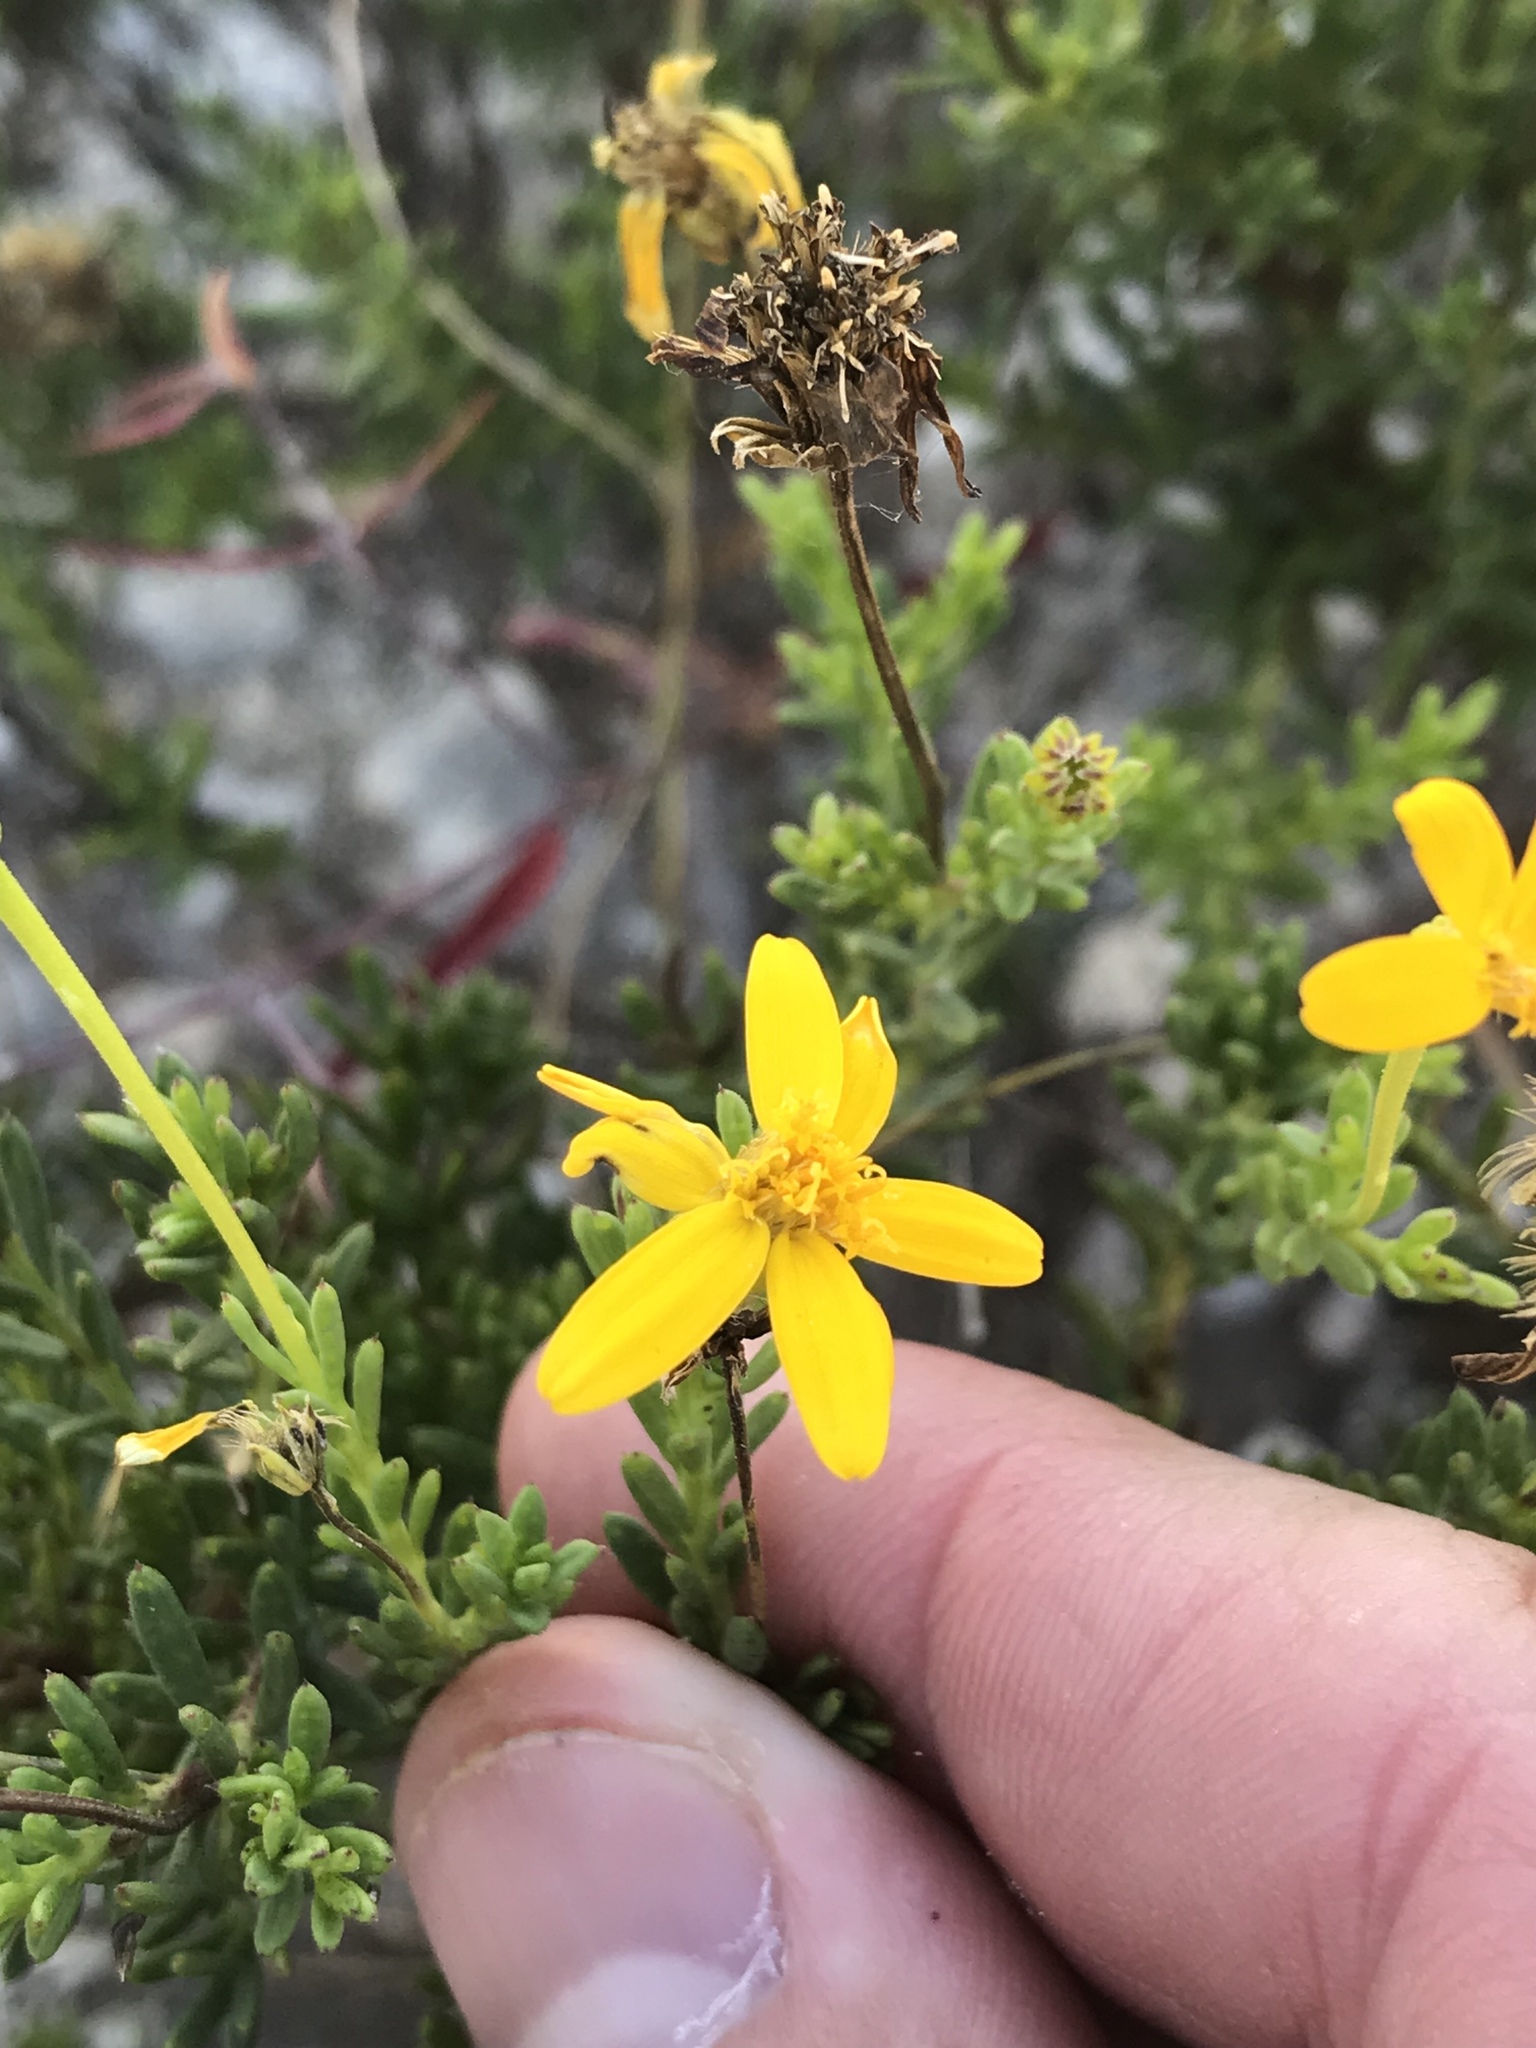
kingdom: Plantae
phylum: Tracheophyta
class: Magnoliopsida
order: Asterales
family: Asteraceae
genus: Chrysactinia
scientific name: Chrysactinia mexicana
